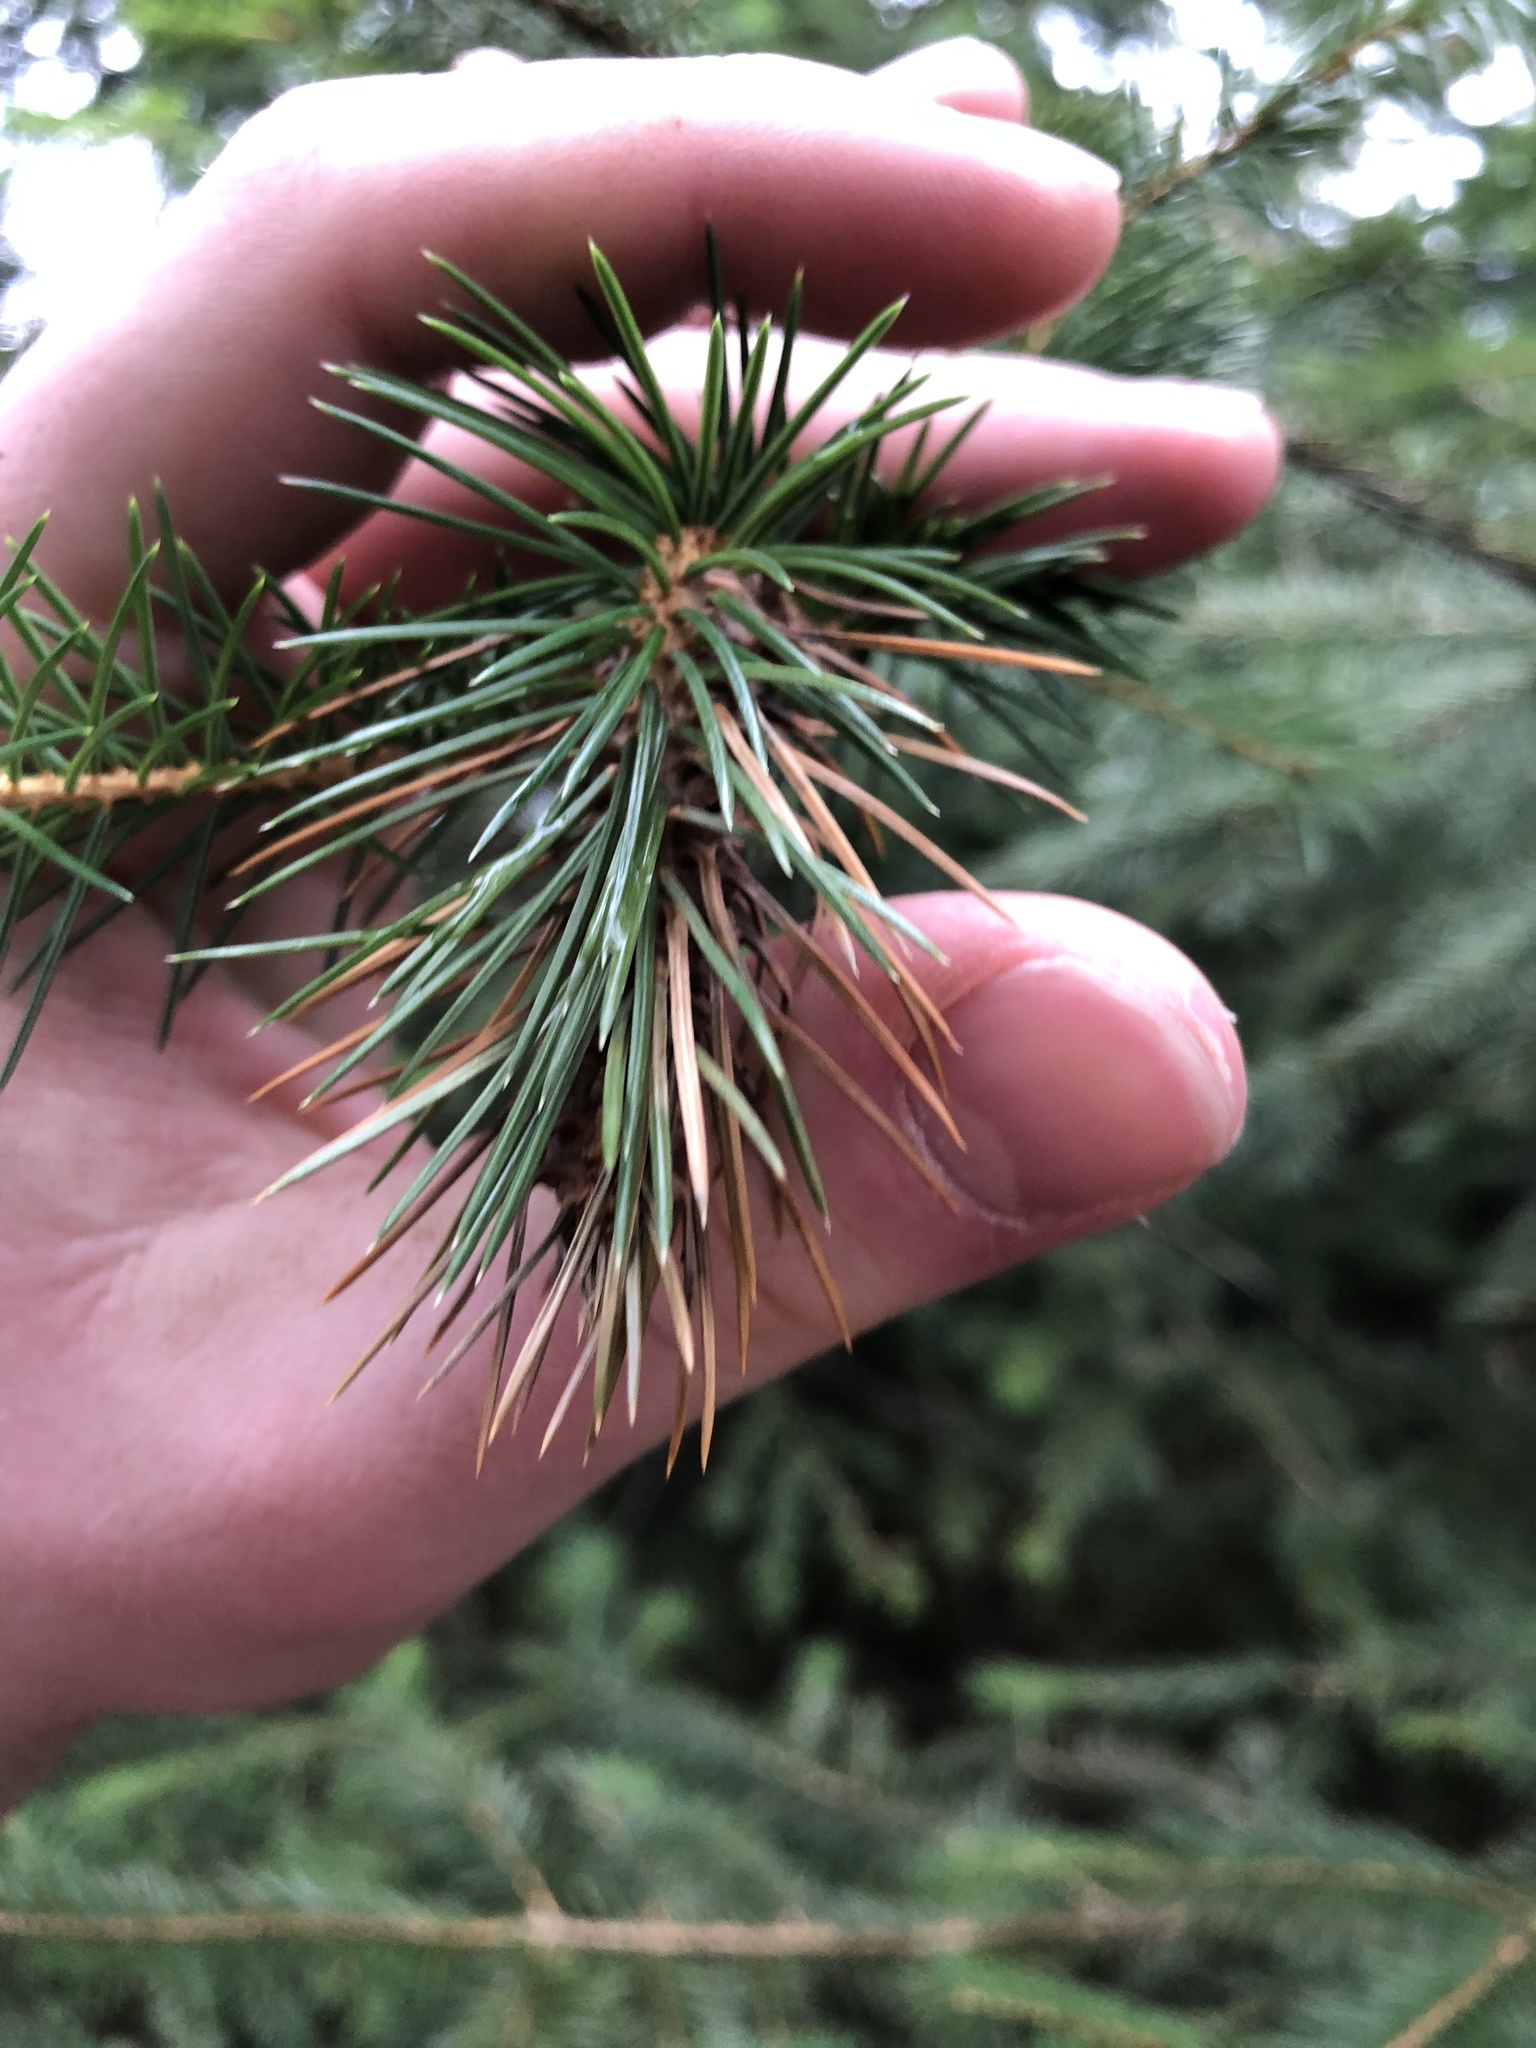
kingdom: Animalia
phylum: Arthropoda
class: Insecta
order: Hemiptera
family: Adelgidae
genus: Adelges
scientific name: Adelges cooleyi
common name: Cooley spruce gall adelgid
